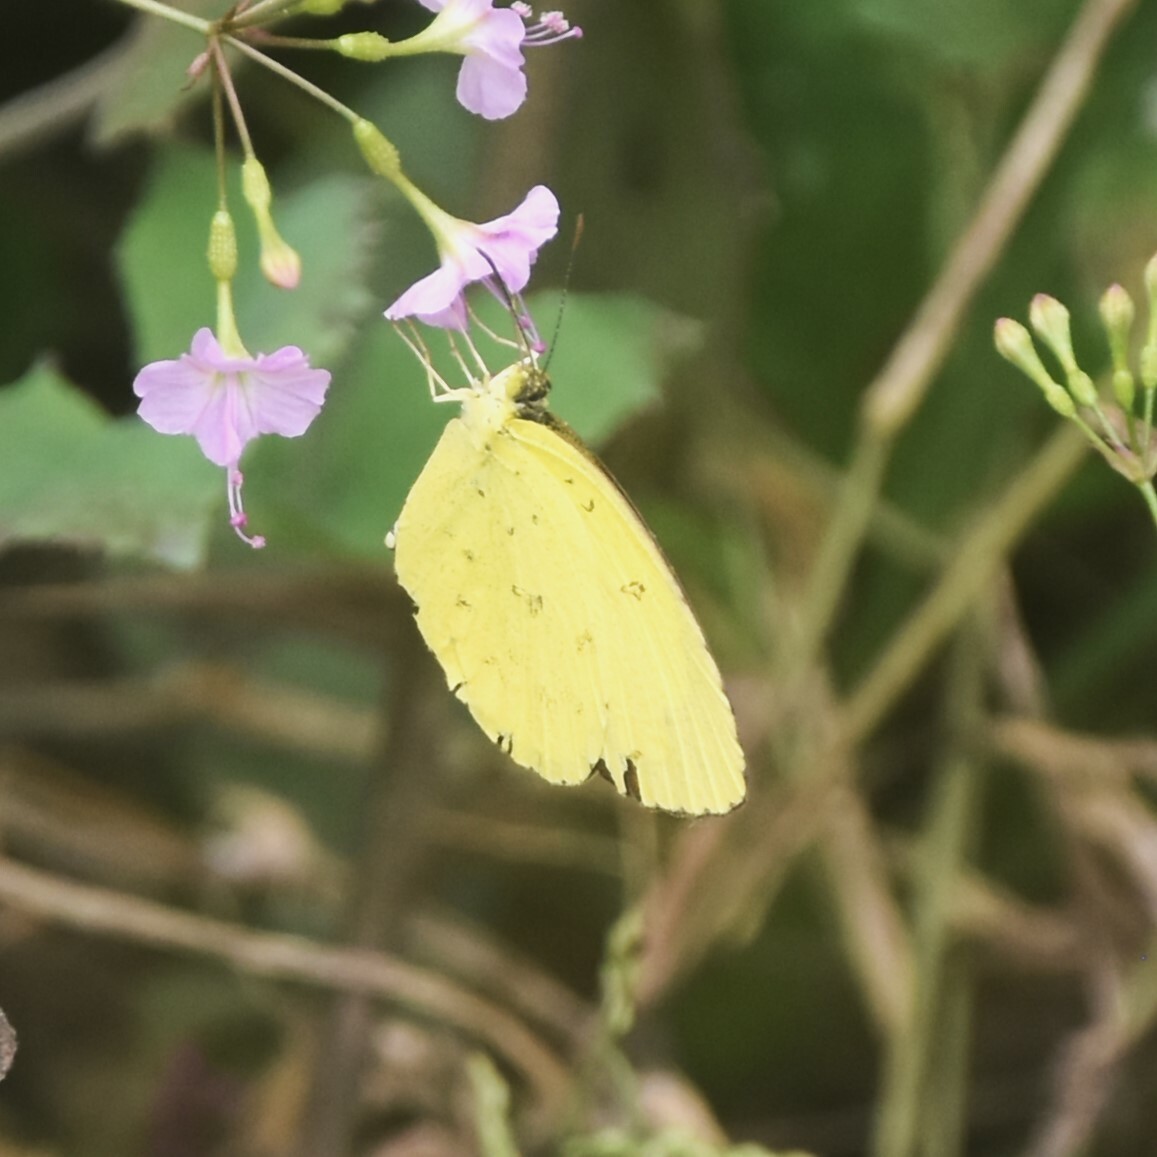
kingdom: Animalia
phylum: Arthropoda
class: Insecta
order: Lepidoptera
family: Pieridae
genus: Eurema
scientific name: Eurema hecabe
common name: Pale grass yellow
